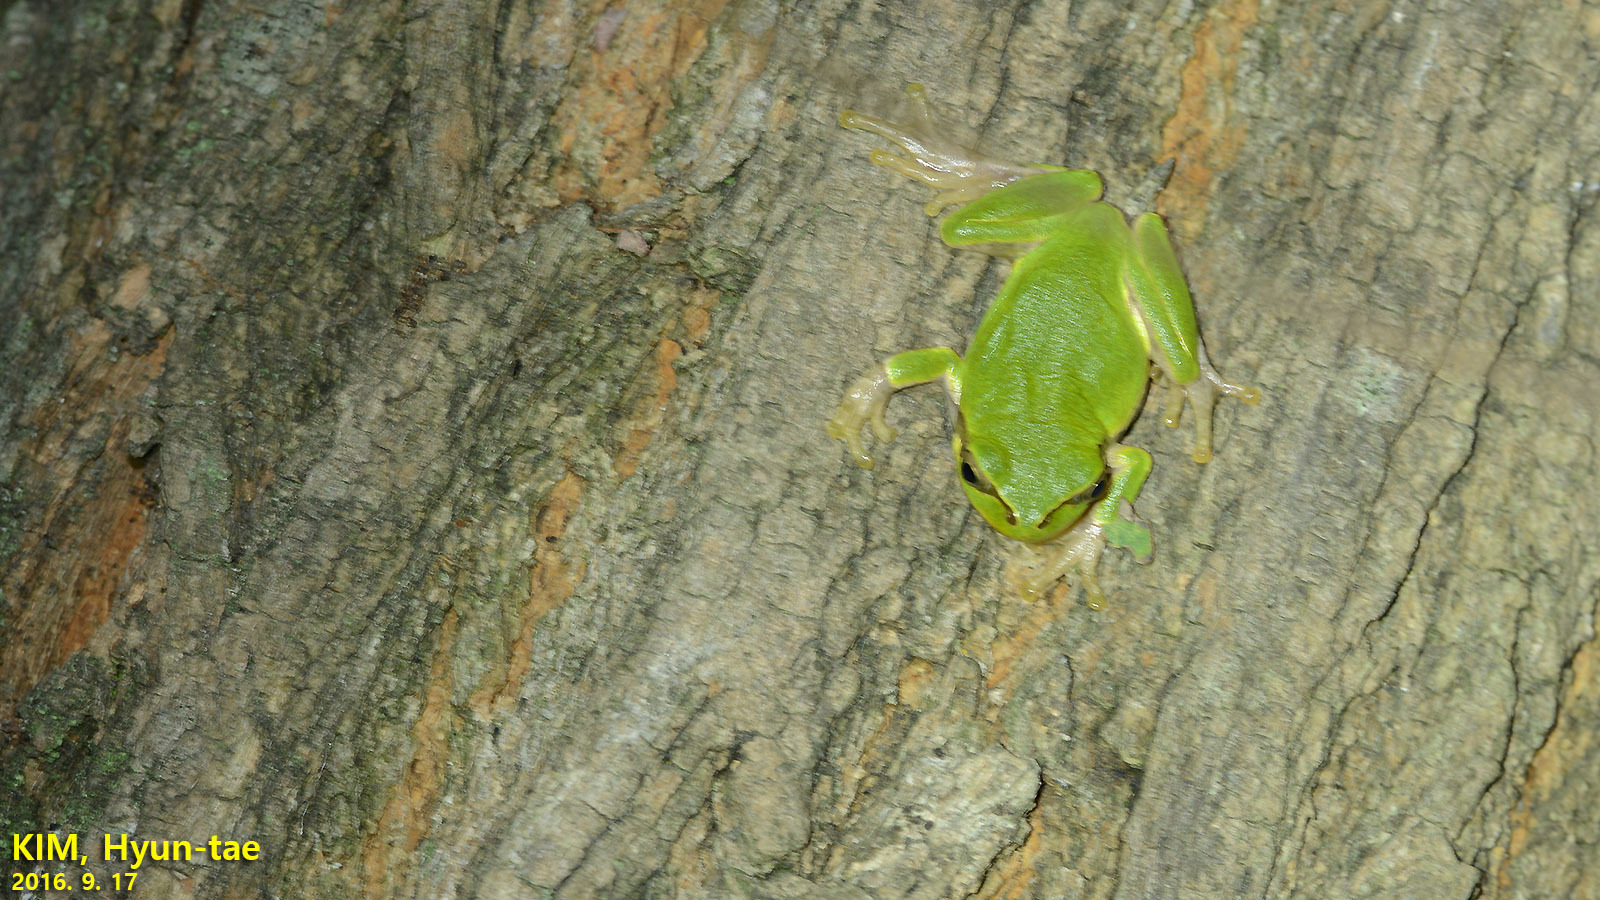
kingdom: Animalia
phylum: Chordata
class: Amphibia
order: Anura
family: Hylidae
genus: Dryophytes
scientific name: Dryophytes japonicus
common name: Japanese treefrog
